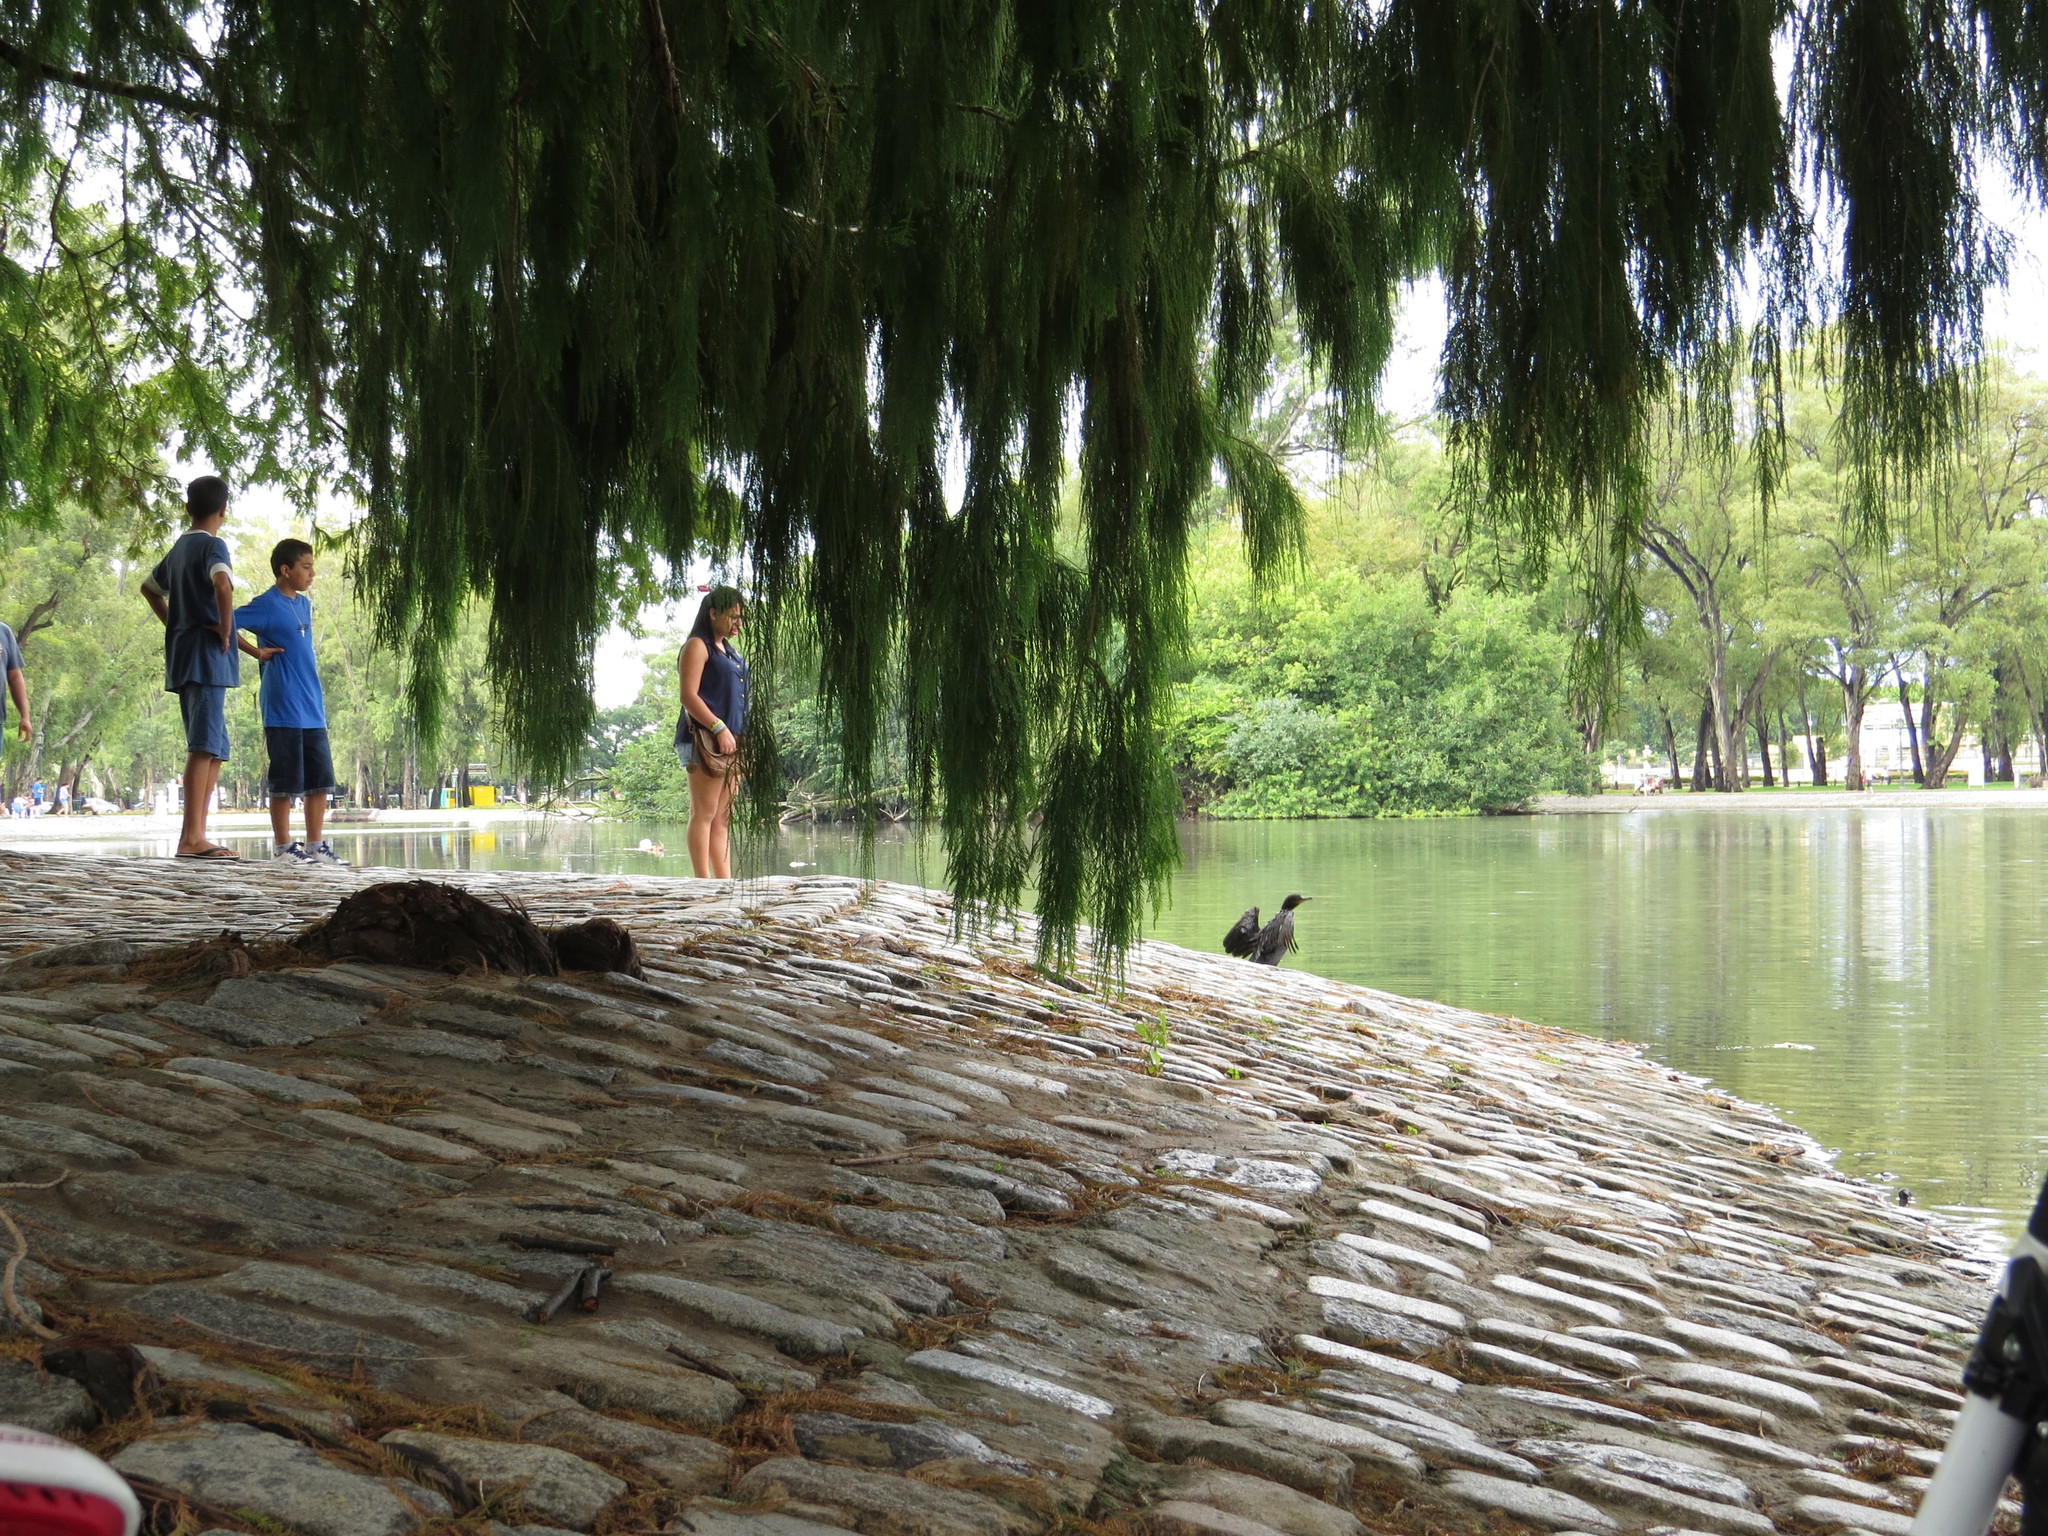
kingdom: Animalia
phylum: Chordata
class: Aves
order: Suliformes
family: Phalacrocoracidae
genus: Phalacrocorax
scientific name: Phalacrocorax brasilianus
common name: Neotropic cormorant
